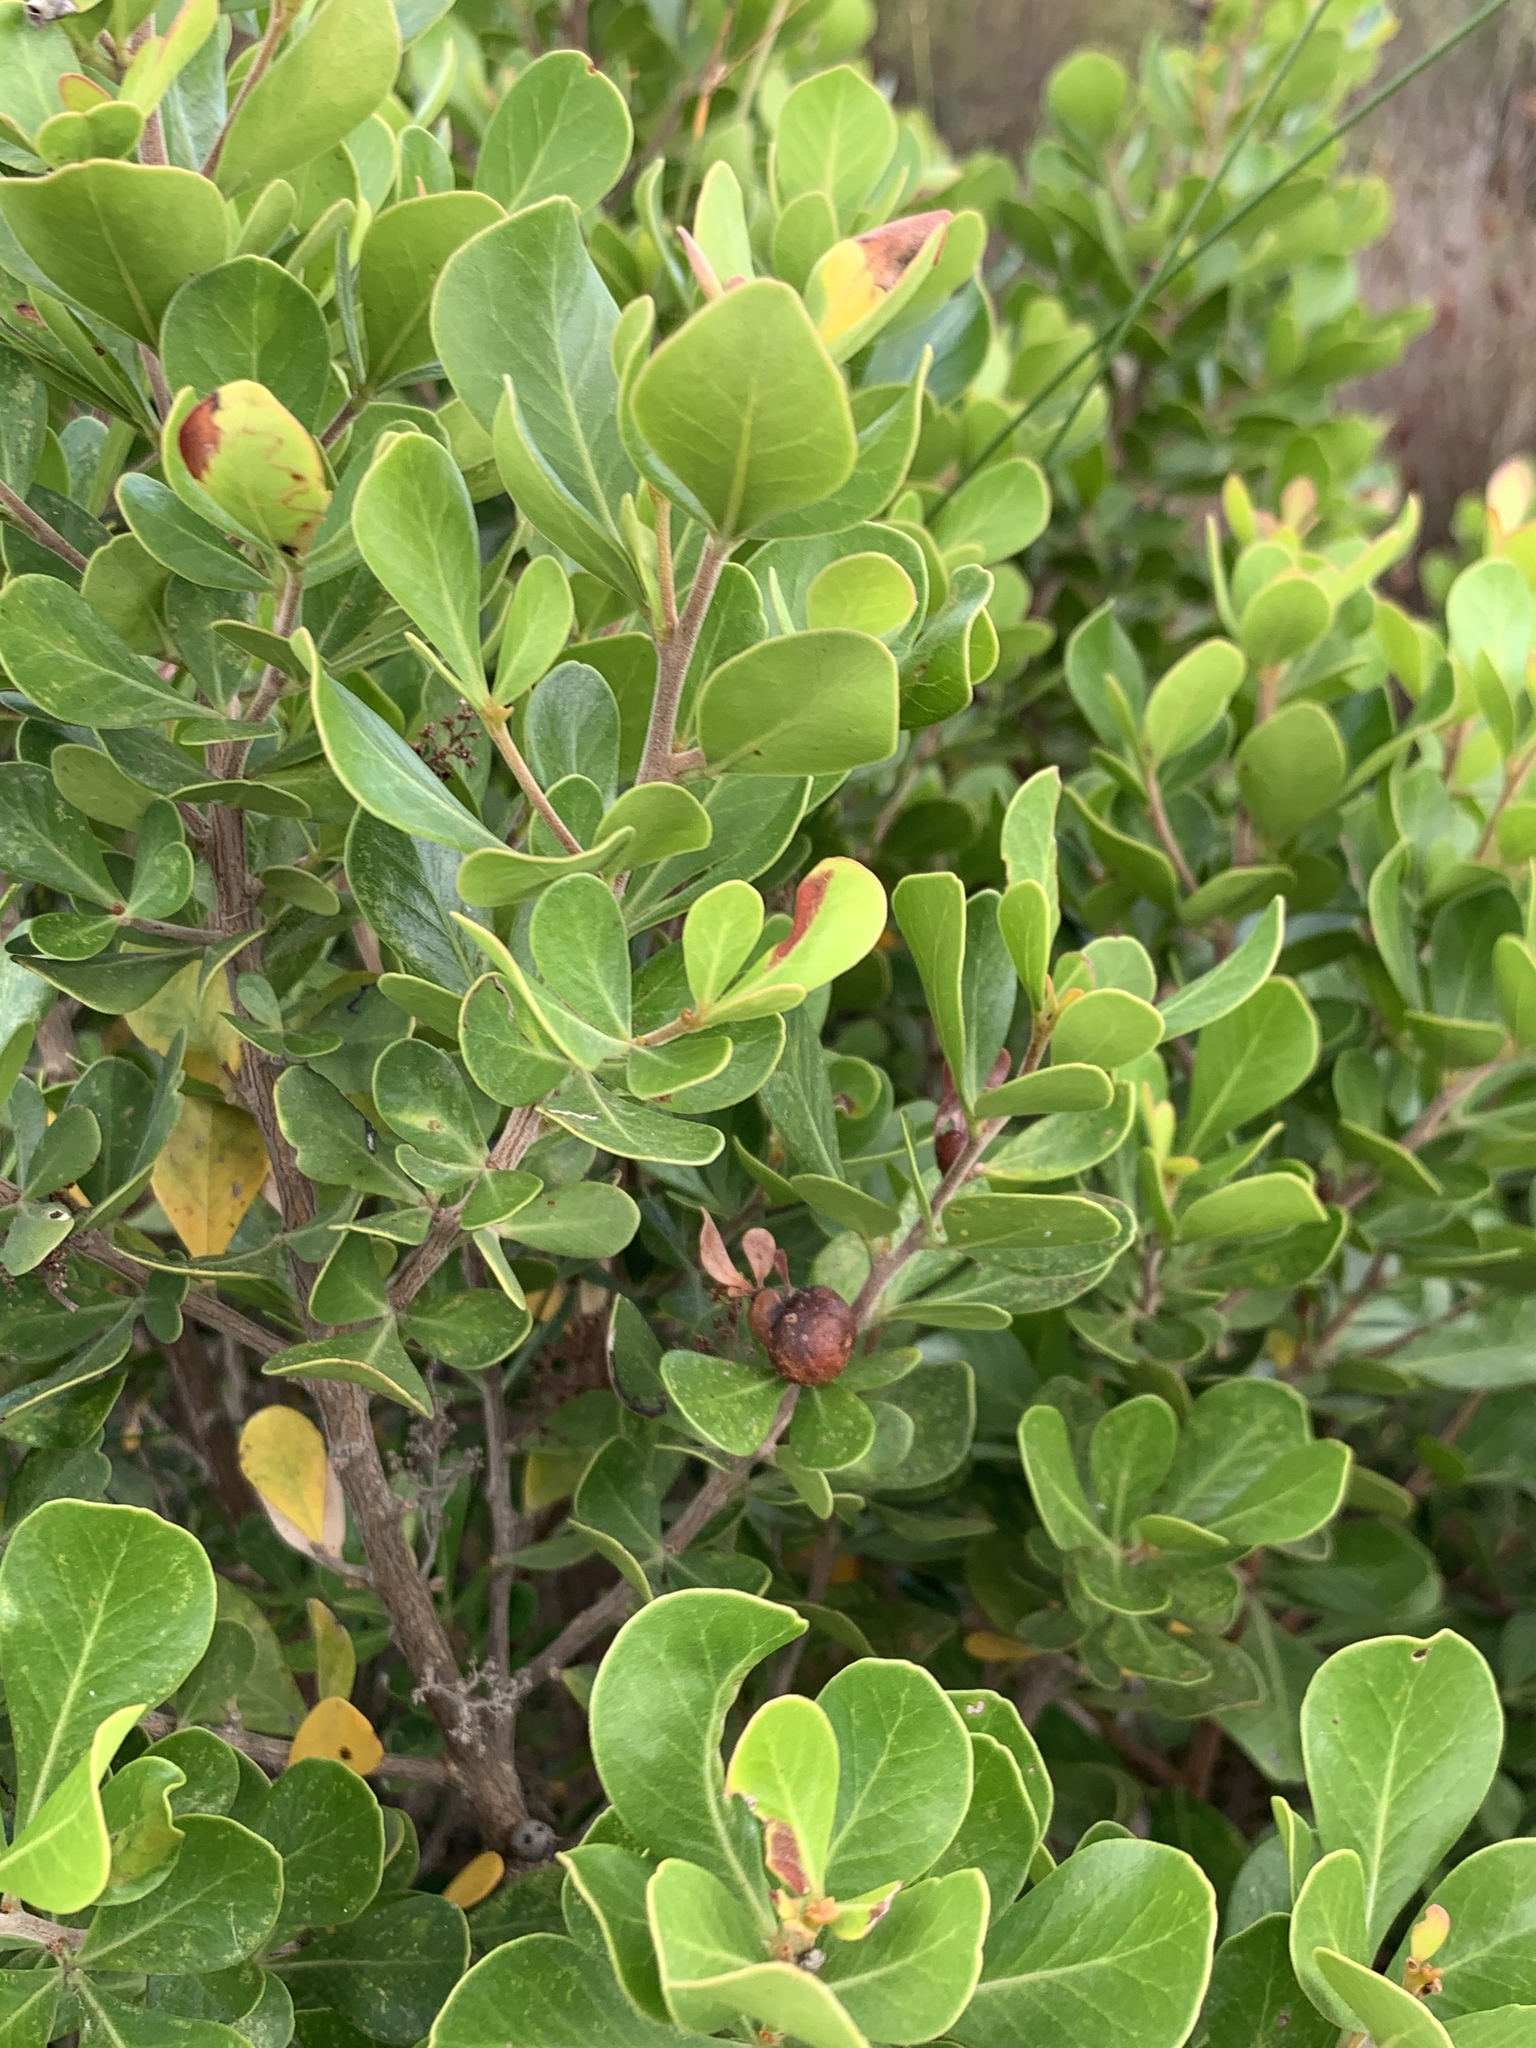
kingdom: Plantae
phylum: Tracheophyta
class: Magnoliopsida
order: Sapindales
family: Anacardiaceae
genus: Searsia
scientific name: Searsia lucida
